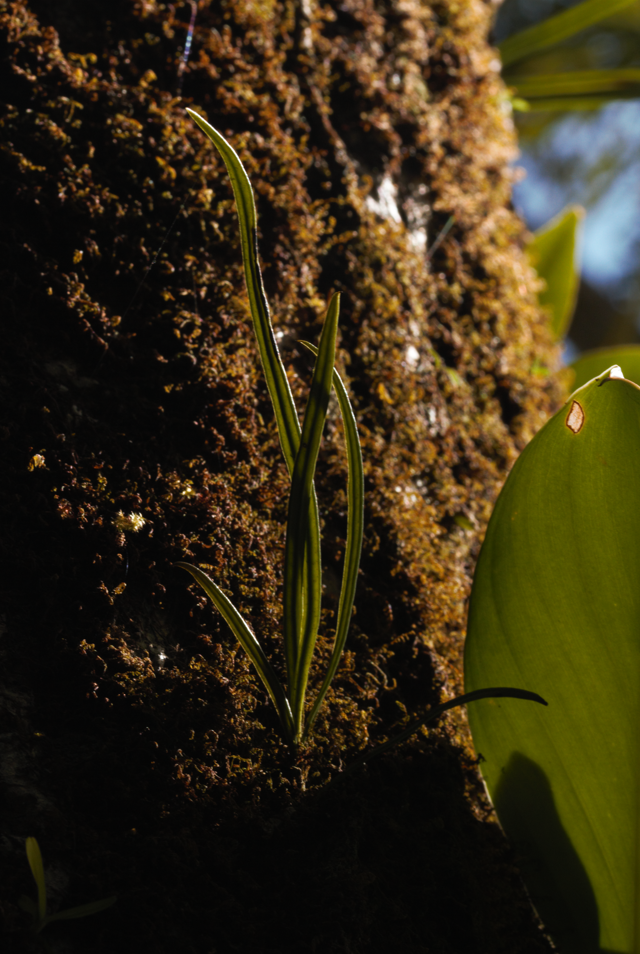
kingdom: Plantae
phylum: Tracheophyta
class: Polypodiopsida
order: Polypodiales
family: Dryopteridaceae
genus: Elaphoglossum
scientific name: Elaphoglossum glabellum
